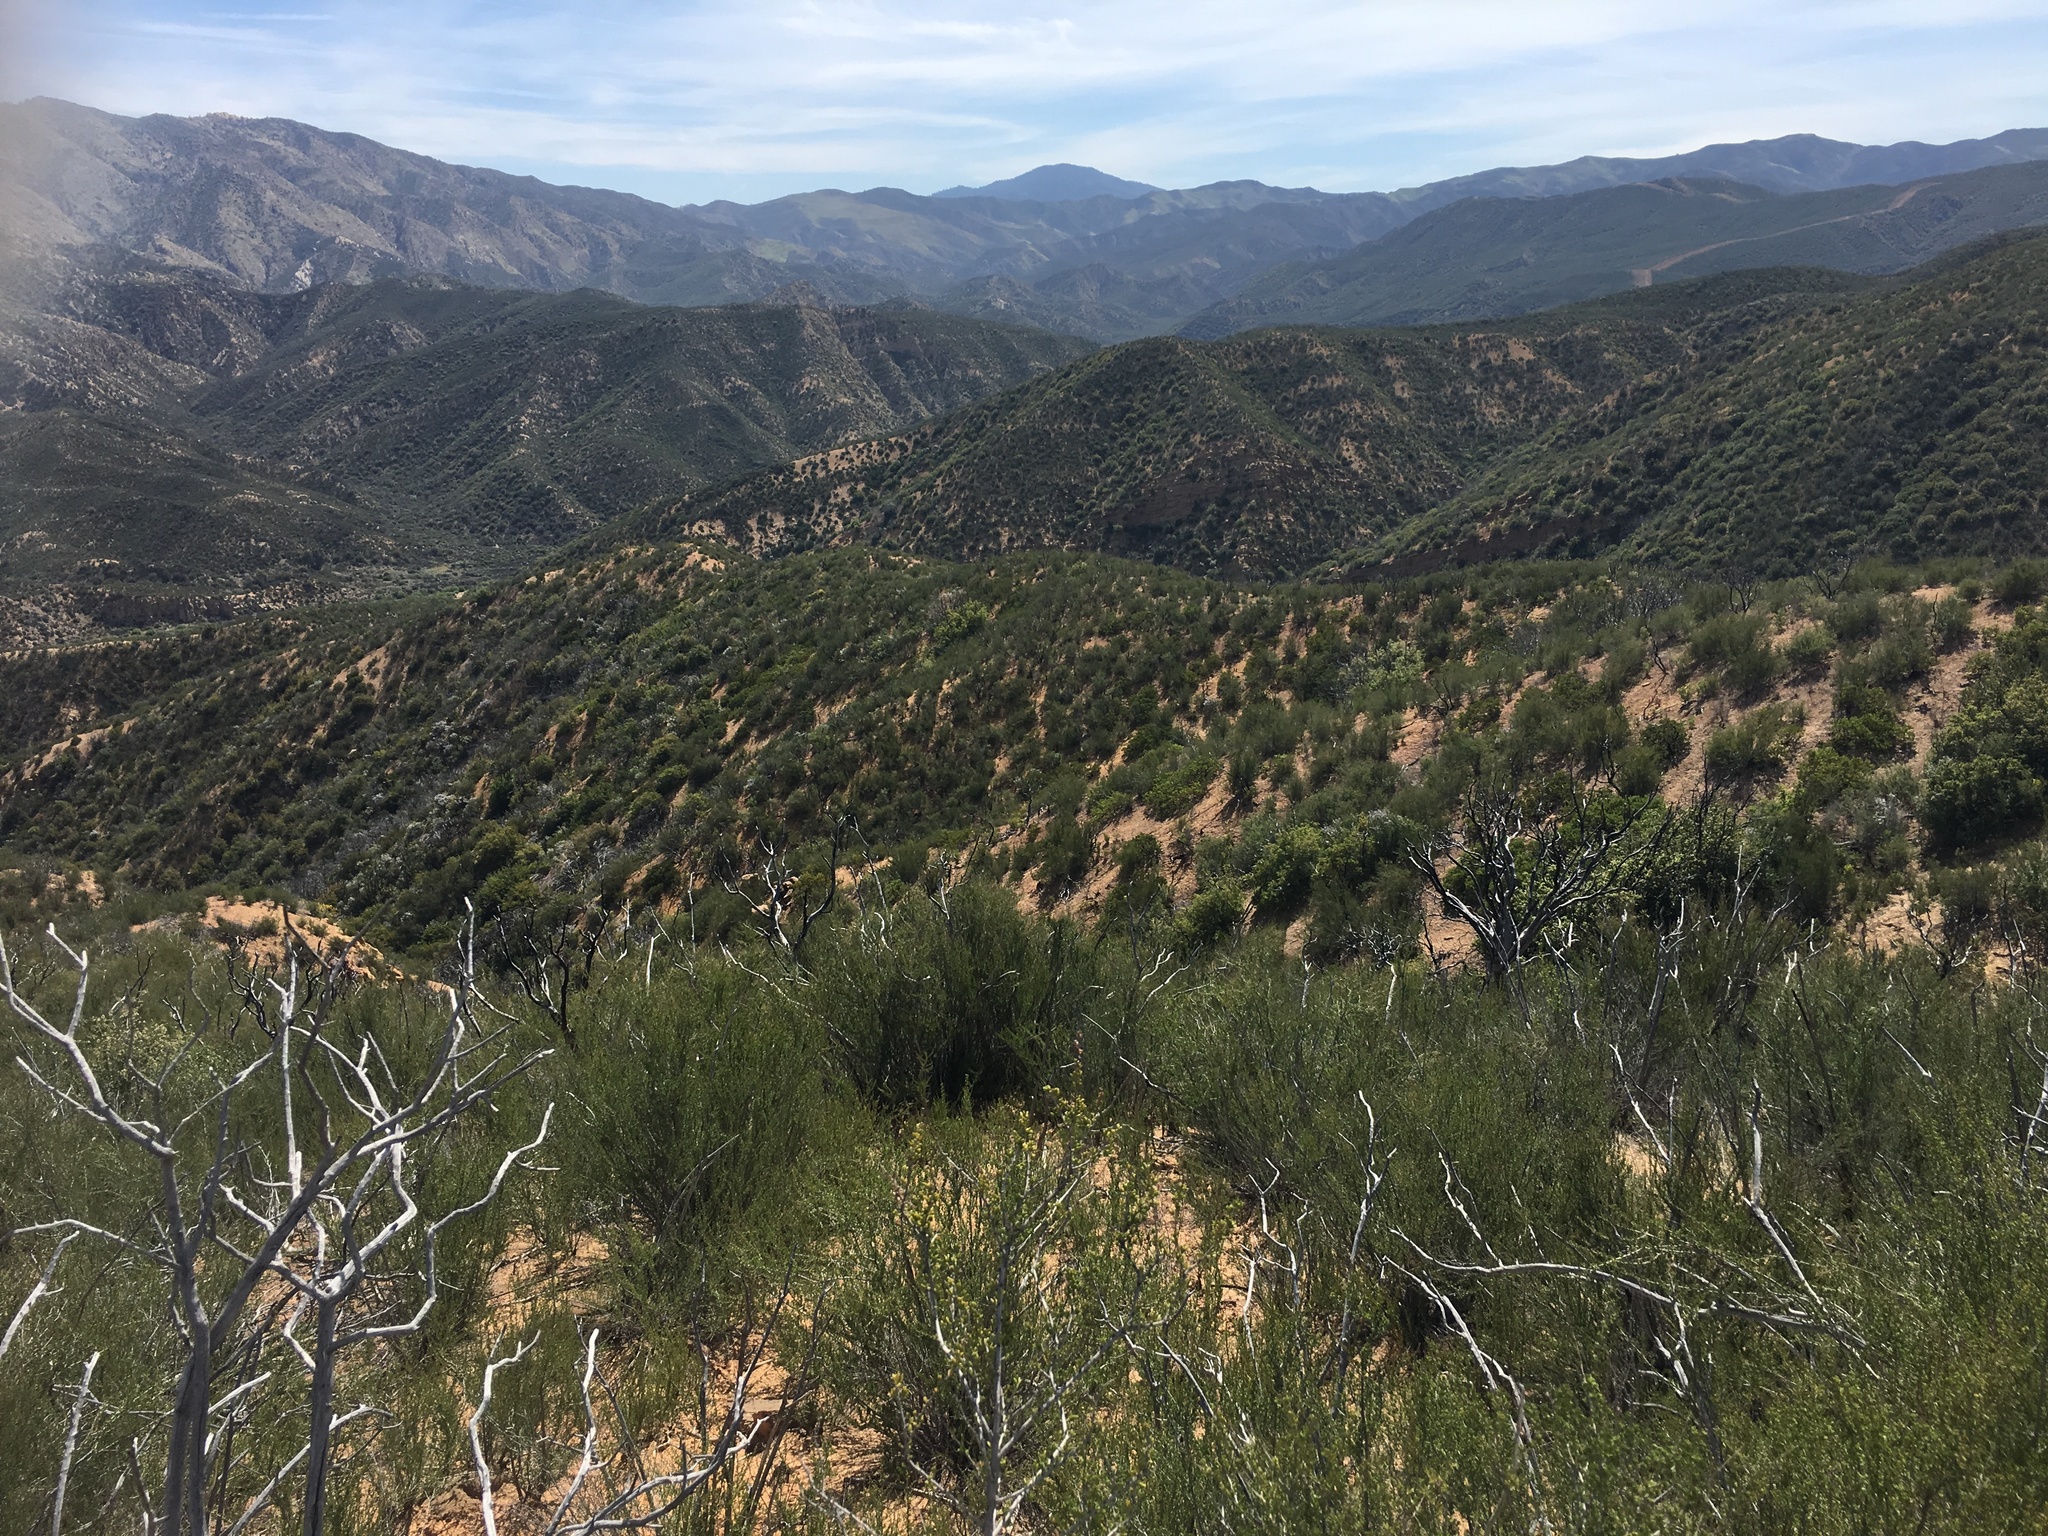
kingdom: Plantae
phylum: Tracheophyta
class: Magnoliopsida
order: Rosales
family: Rosaceae
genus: Adenostoma
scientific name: Adenostoma fasciculatum
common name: Chamise
